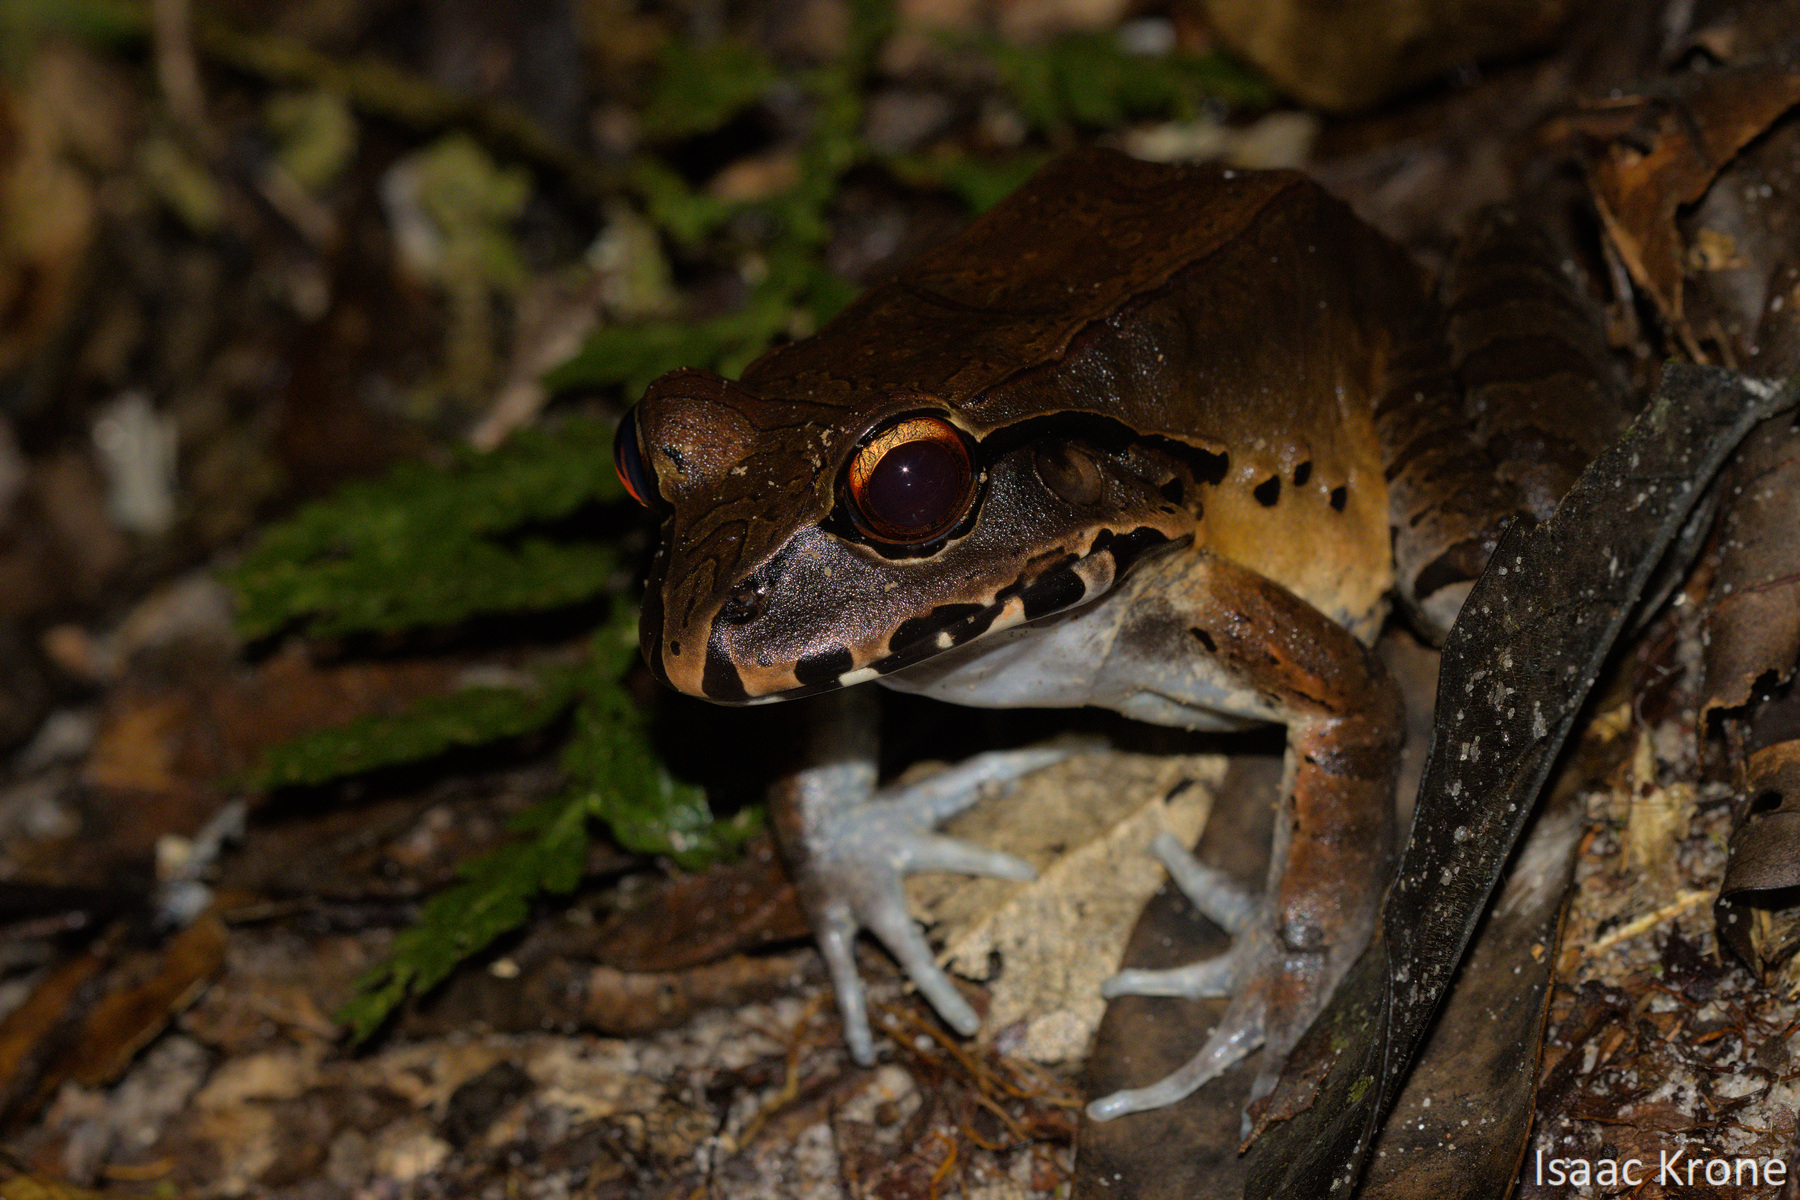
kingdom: Animalia
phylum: Chordata
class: Amphibia
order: Anura
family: Leptodactylidae
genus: Leptodactylus
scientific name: Leptodactylus pentadactylus
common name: Smoky jungle frog
